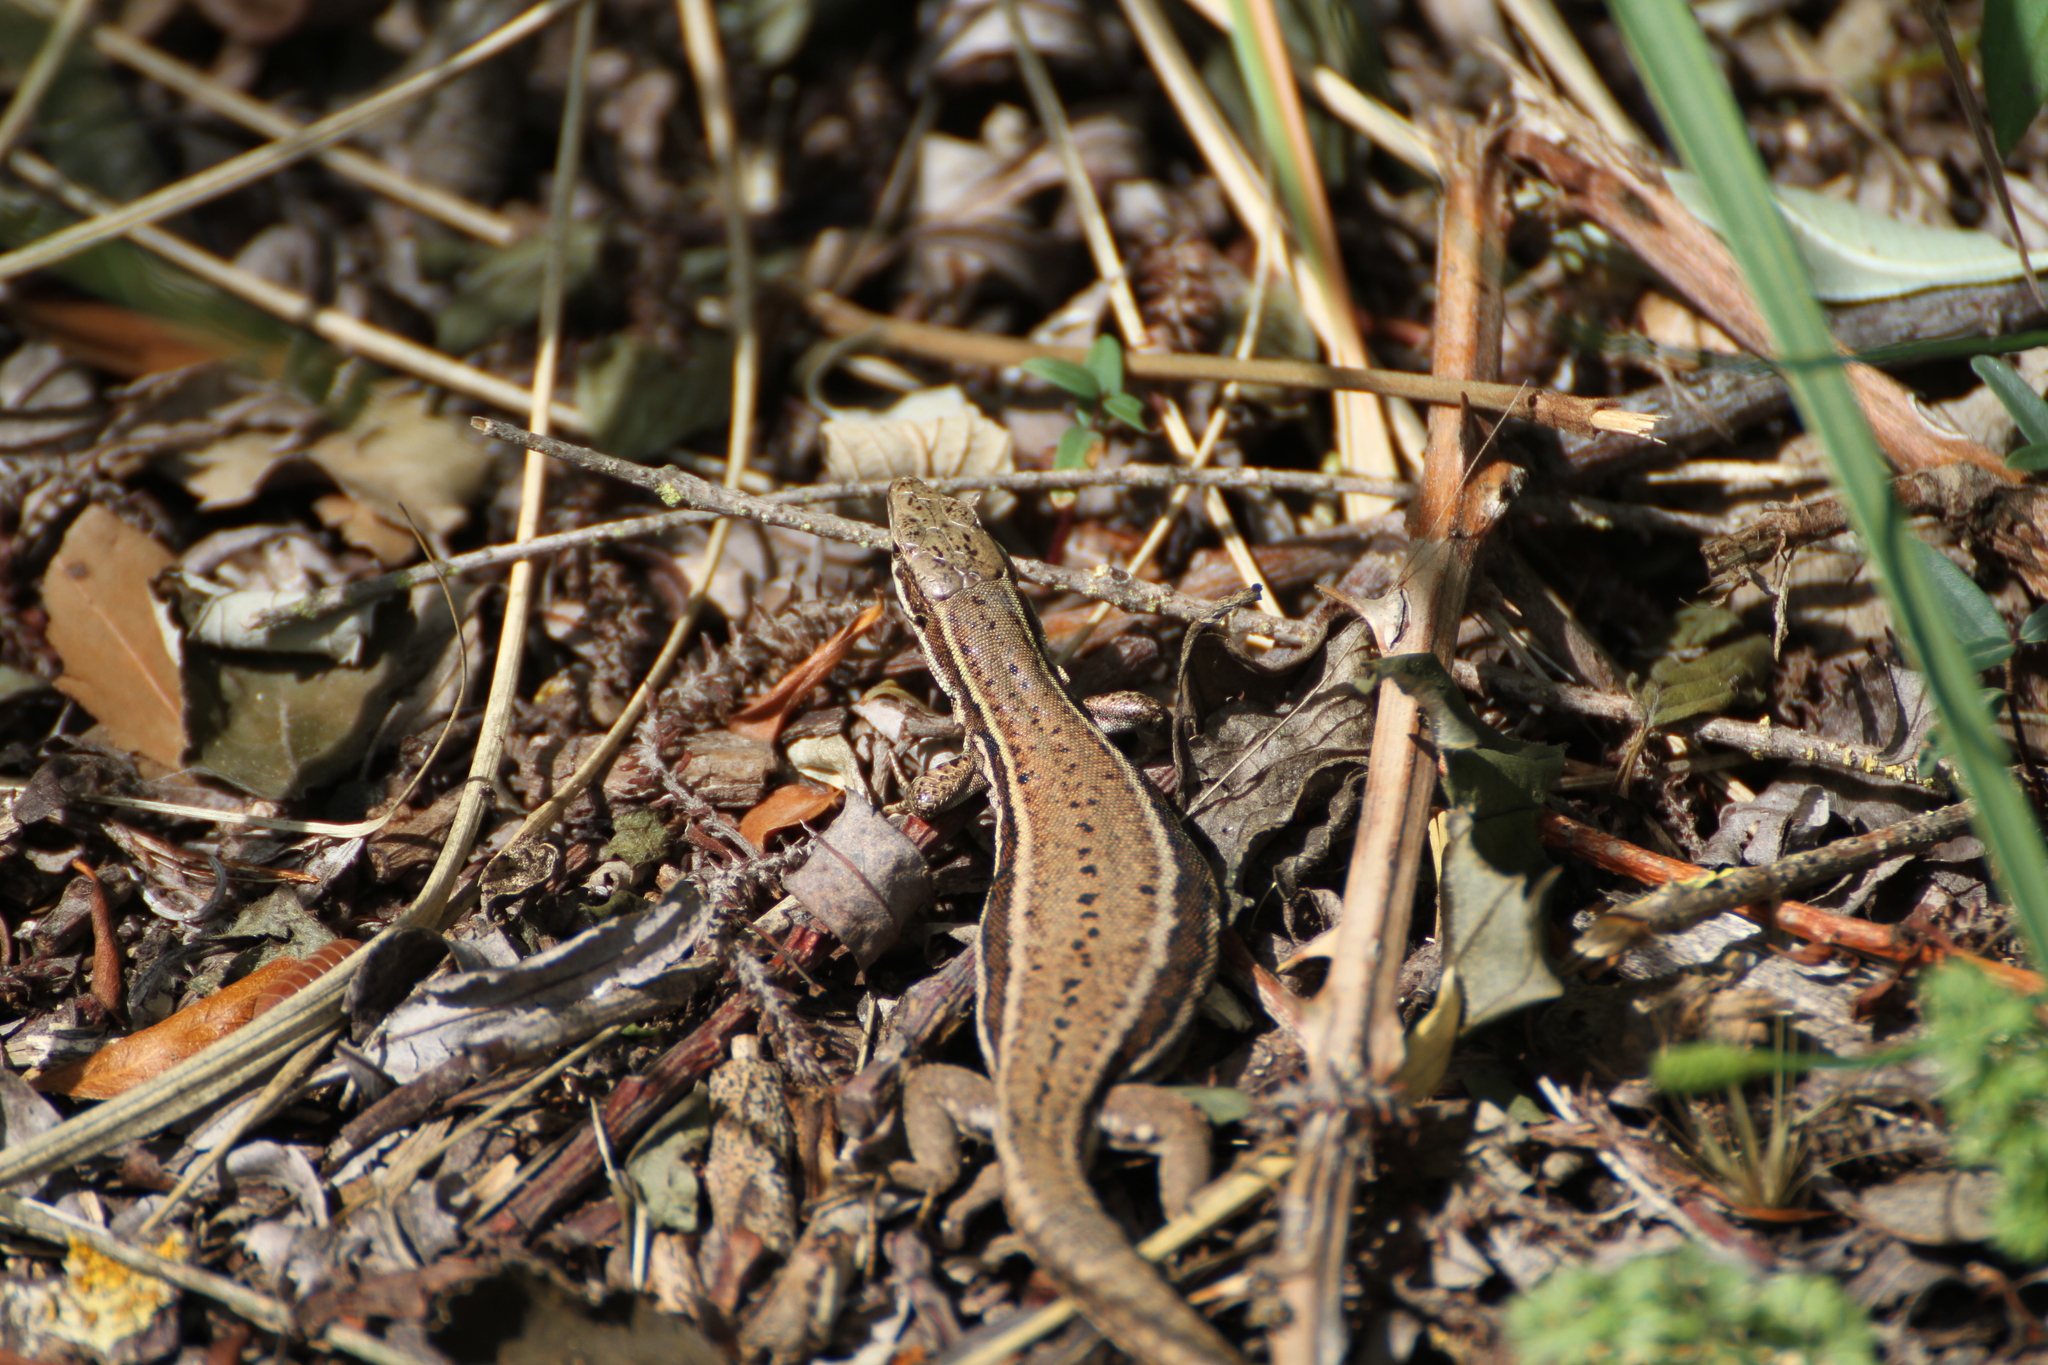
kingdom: Animalia
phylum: Chordata
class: Squamata
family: Lacertidae
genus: Podarcis
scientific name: Podarcis muralis
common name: Common wall lizard
